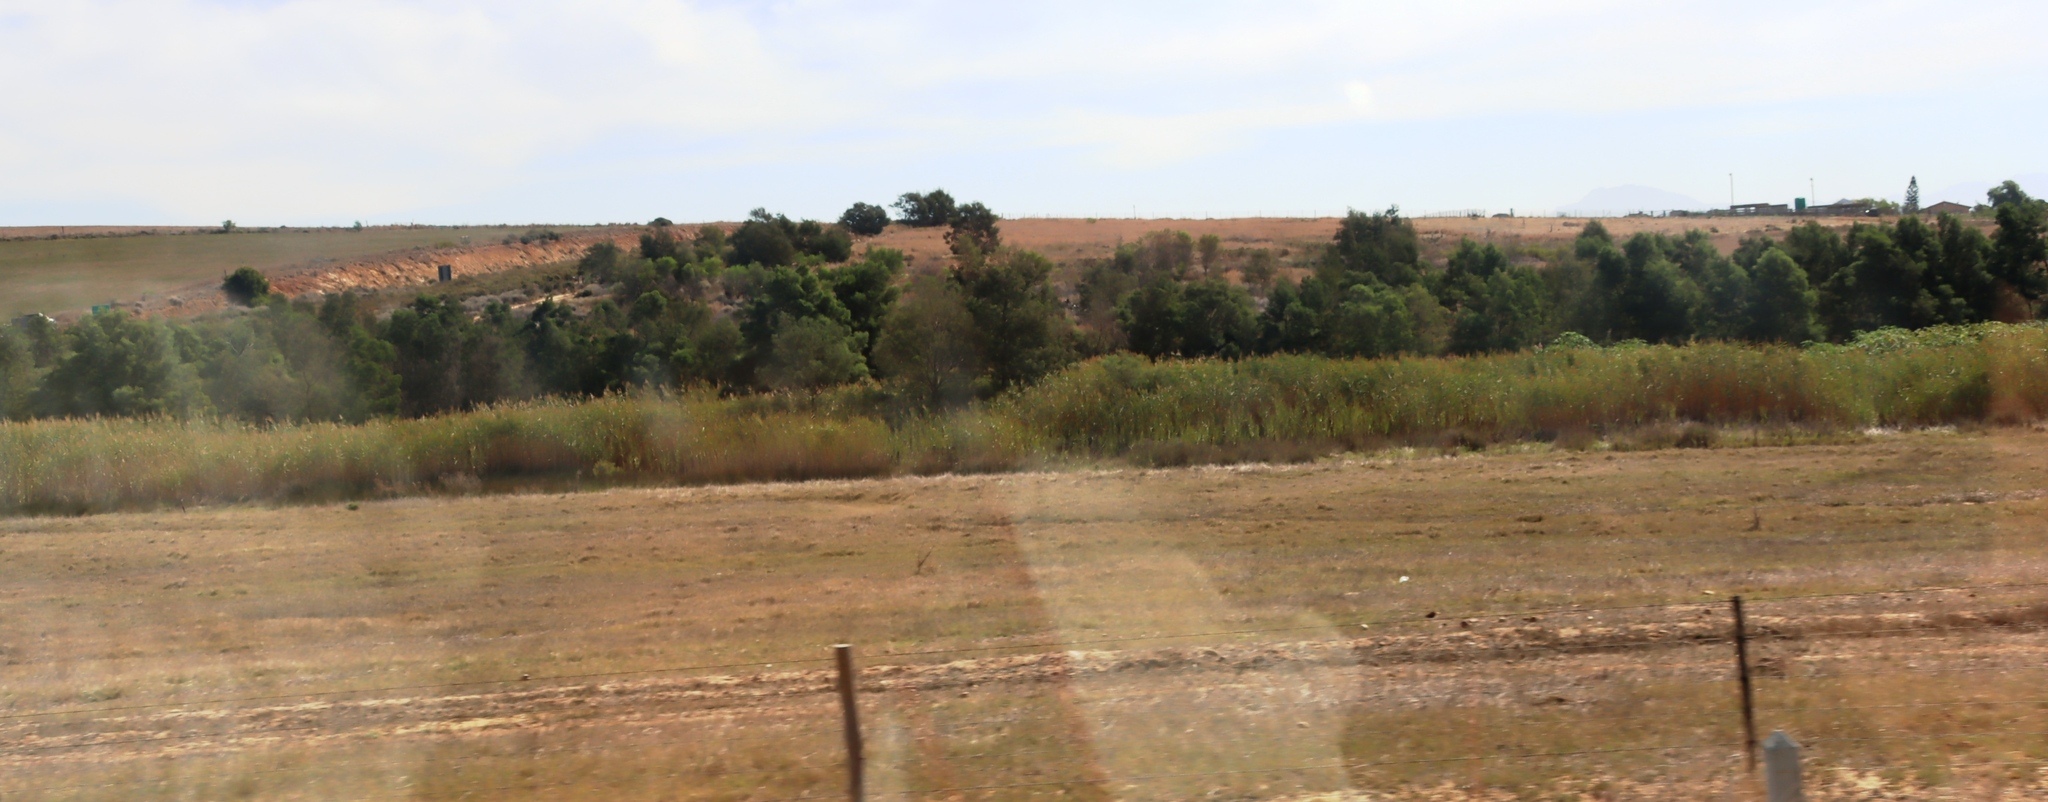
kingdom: Plantae
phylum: Tracheophyta
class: Magnoliopsida
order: Fabales
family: Fabaceae
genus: Acacia
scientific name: Acacia mearnsii
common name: Black wattle
